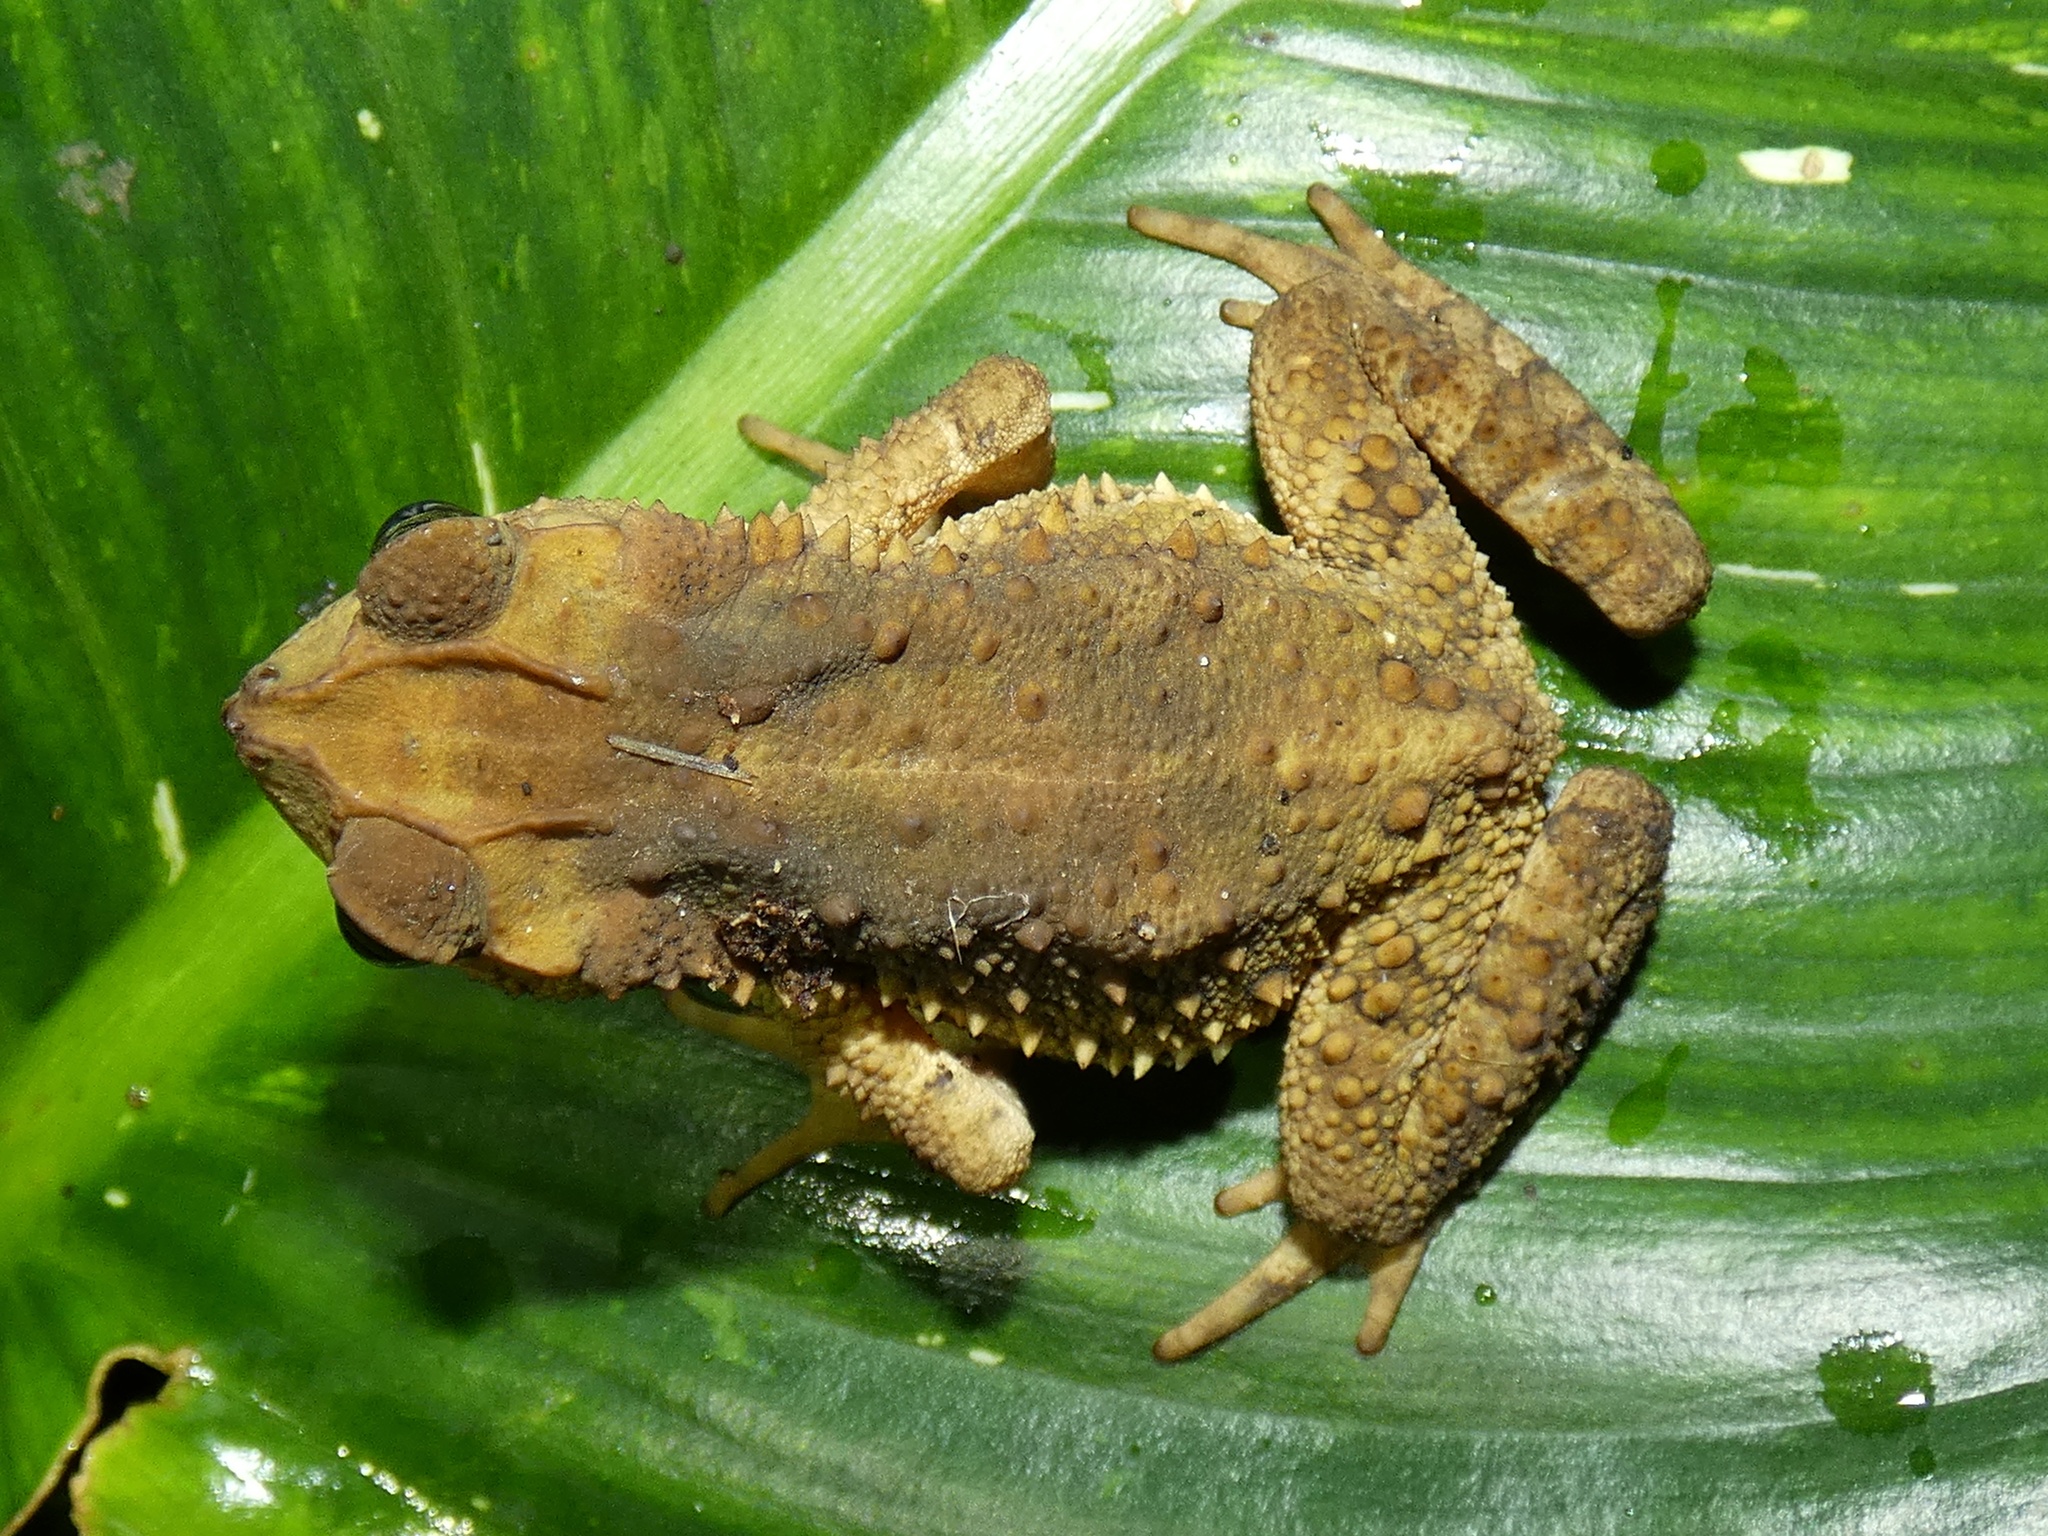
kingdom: Animalia
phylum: Chordata
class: Amphibia
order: Anura
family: Bufonidae
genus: Incilius
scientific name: Incilius coniferus
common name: Evergreen toad
